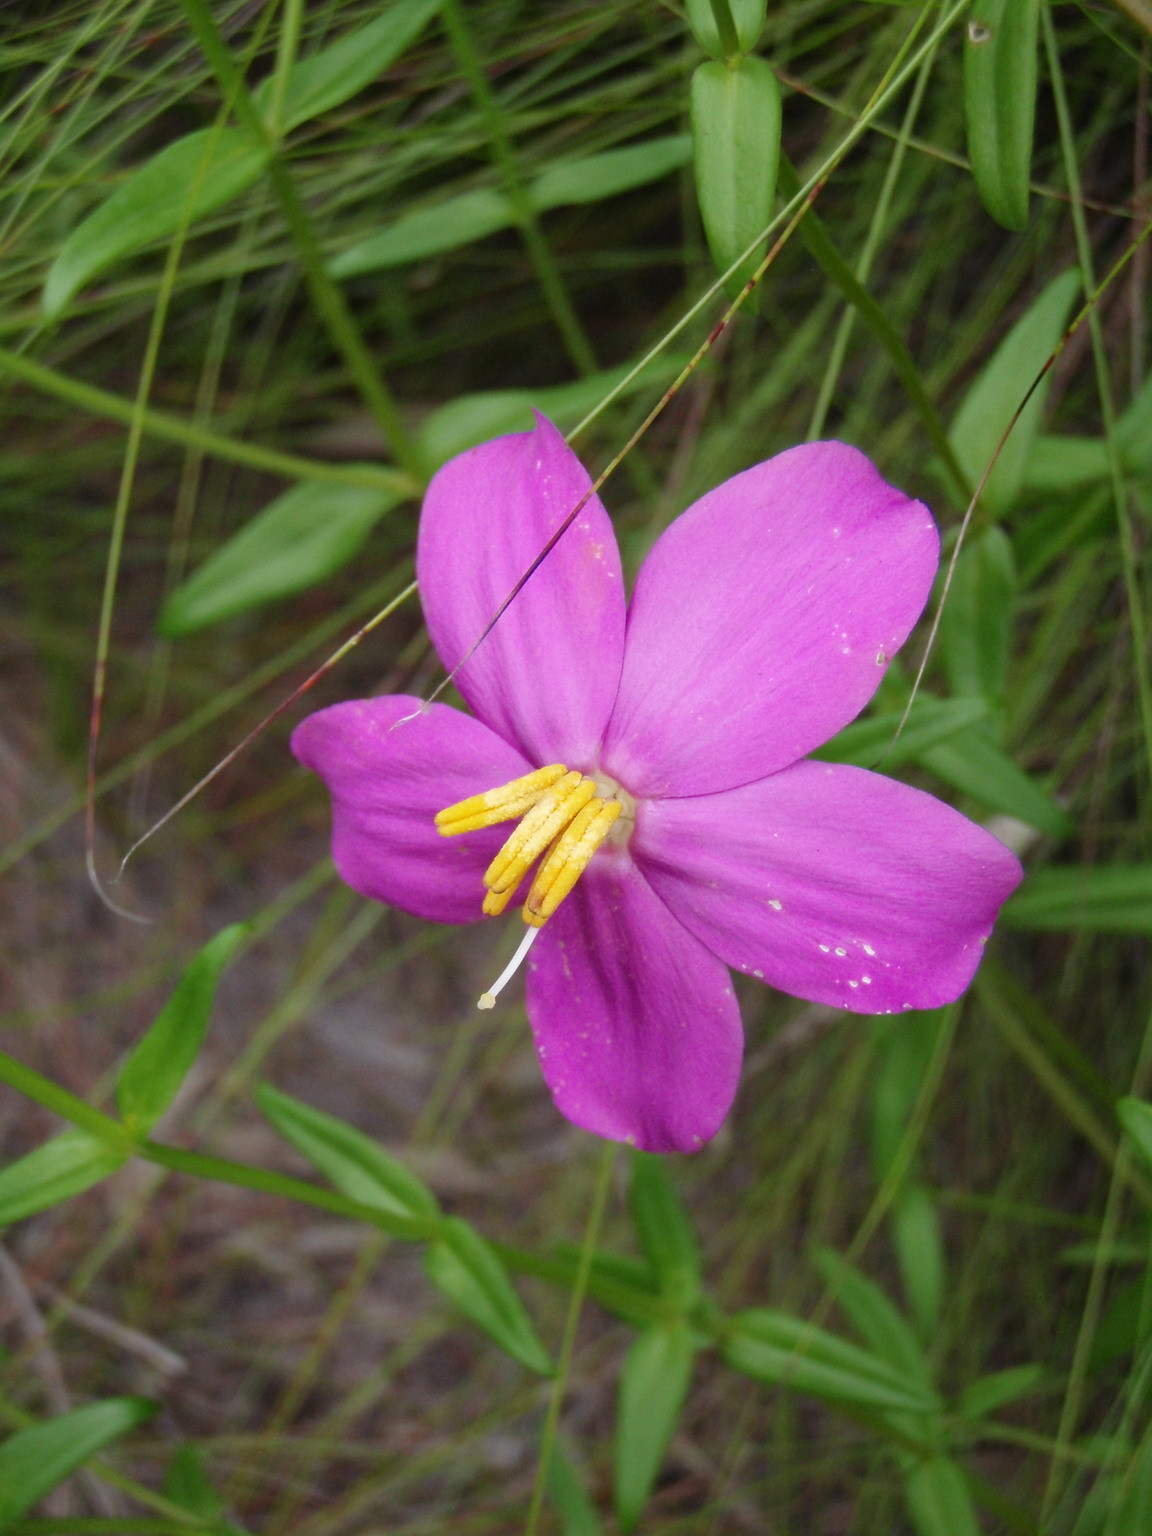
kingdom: Plantae
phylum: Tracheophyta
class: Magnoliopsida
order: Gentianales
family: Gentianaceae
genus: Chironia
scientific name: Chironia melampyrifolia
